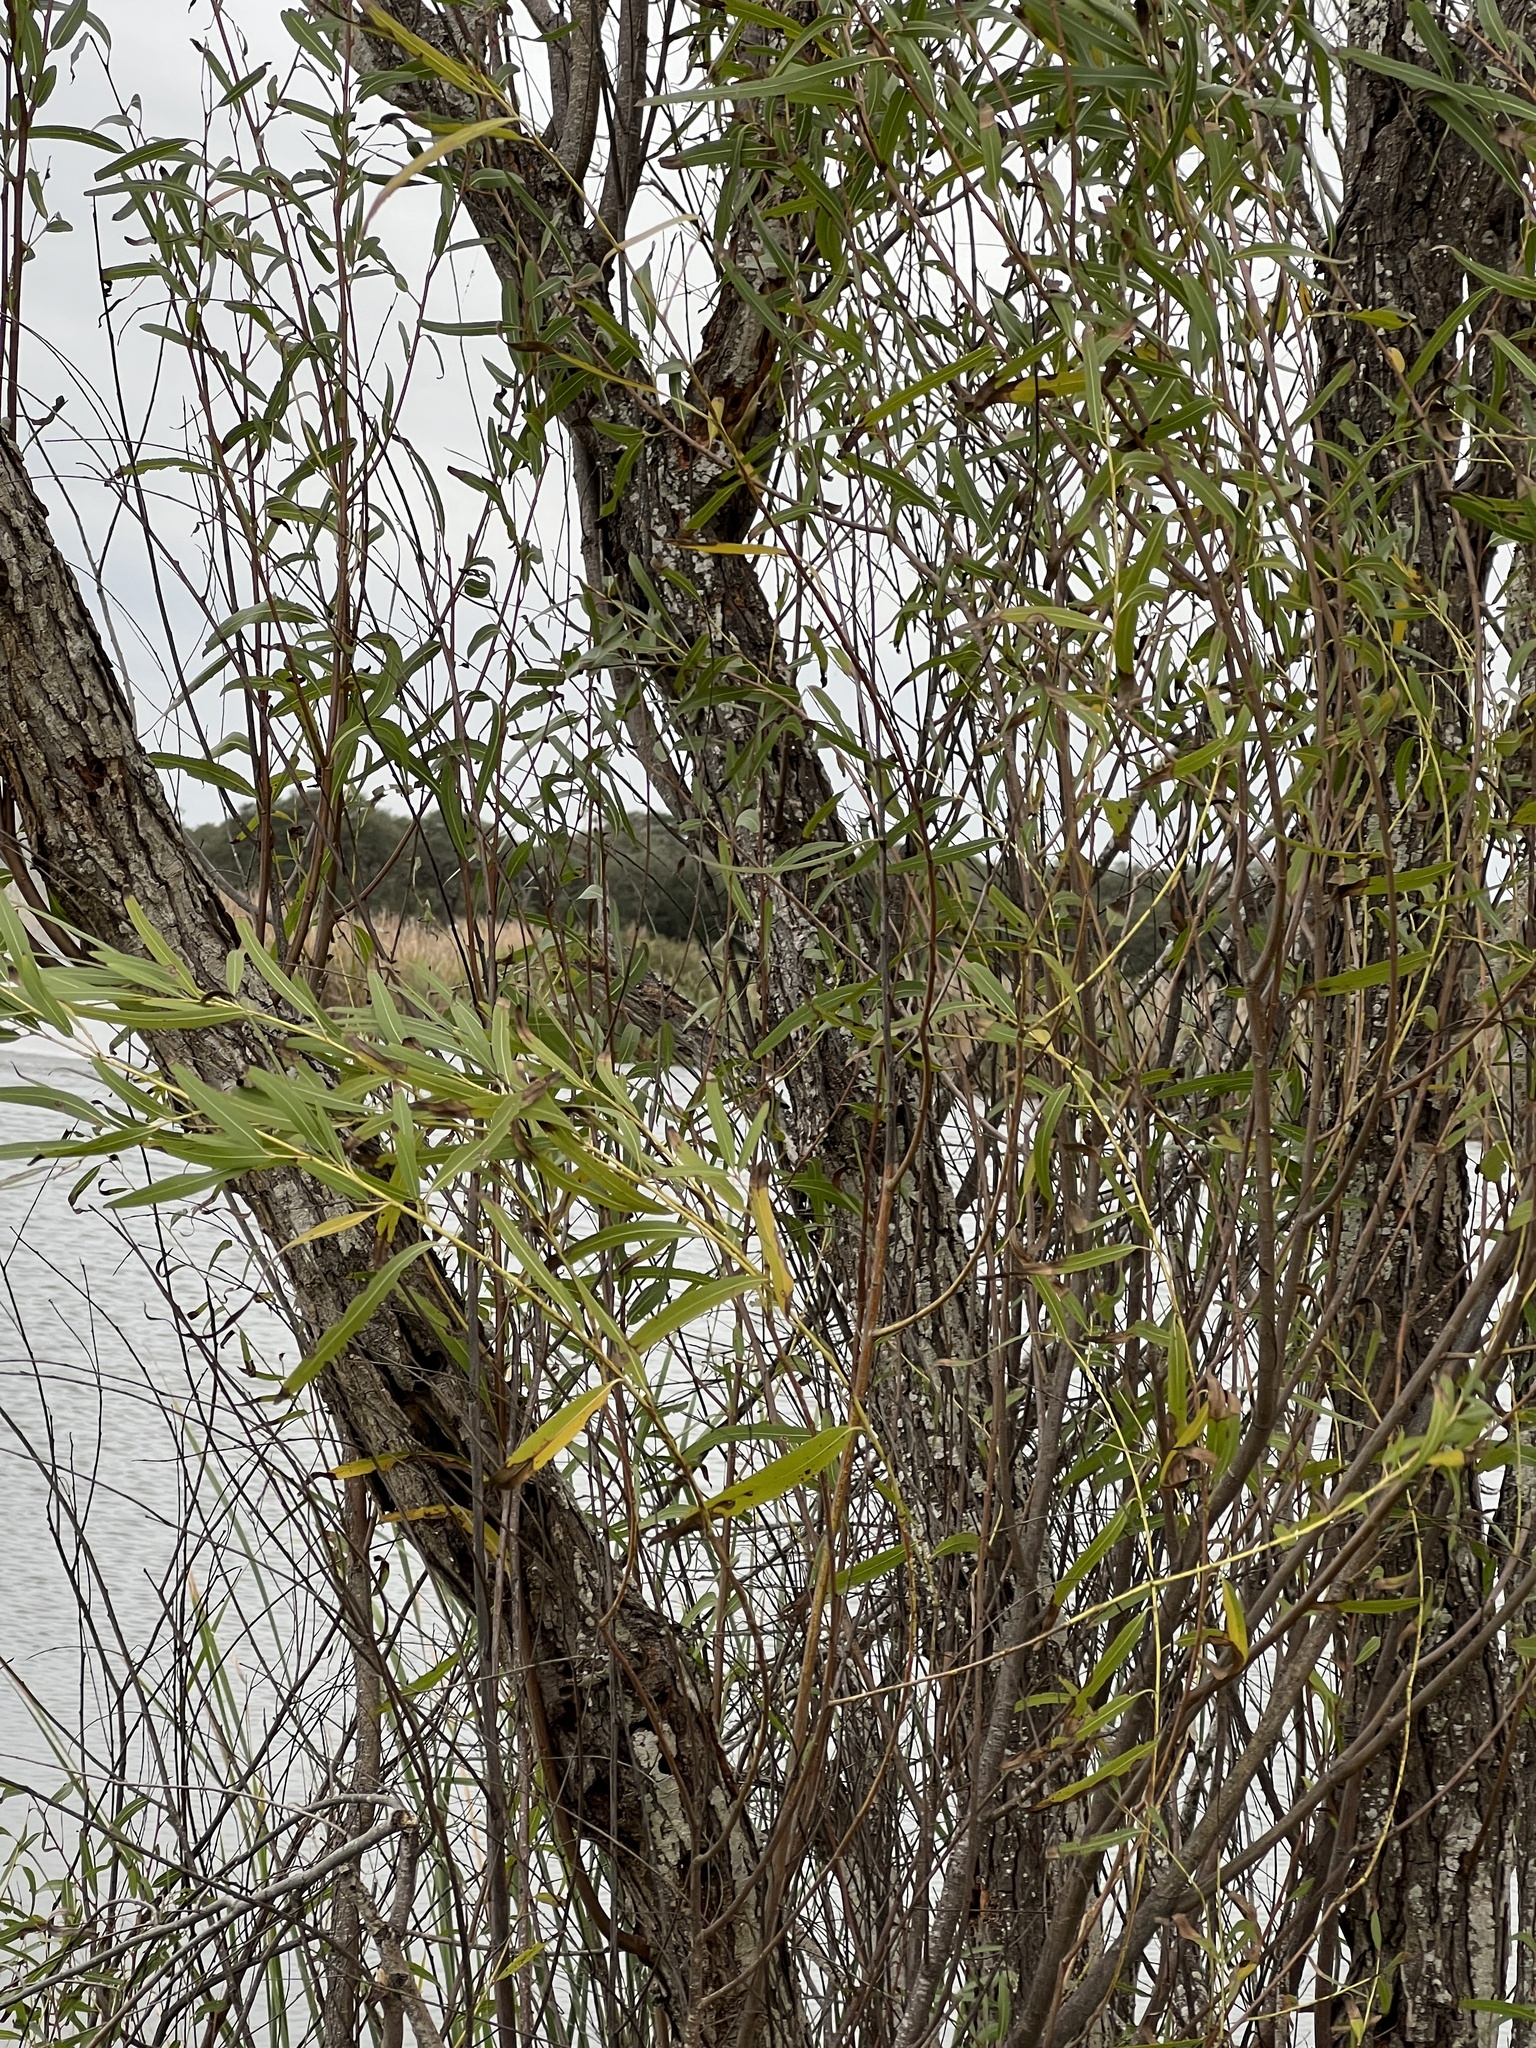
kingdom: Plantae
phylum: Tracheophyta
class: Magnoliopsida
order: Malpighiales
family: Salicaceae
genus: Salix
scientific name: Salix nigra
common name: Black willow
